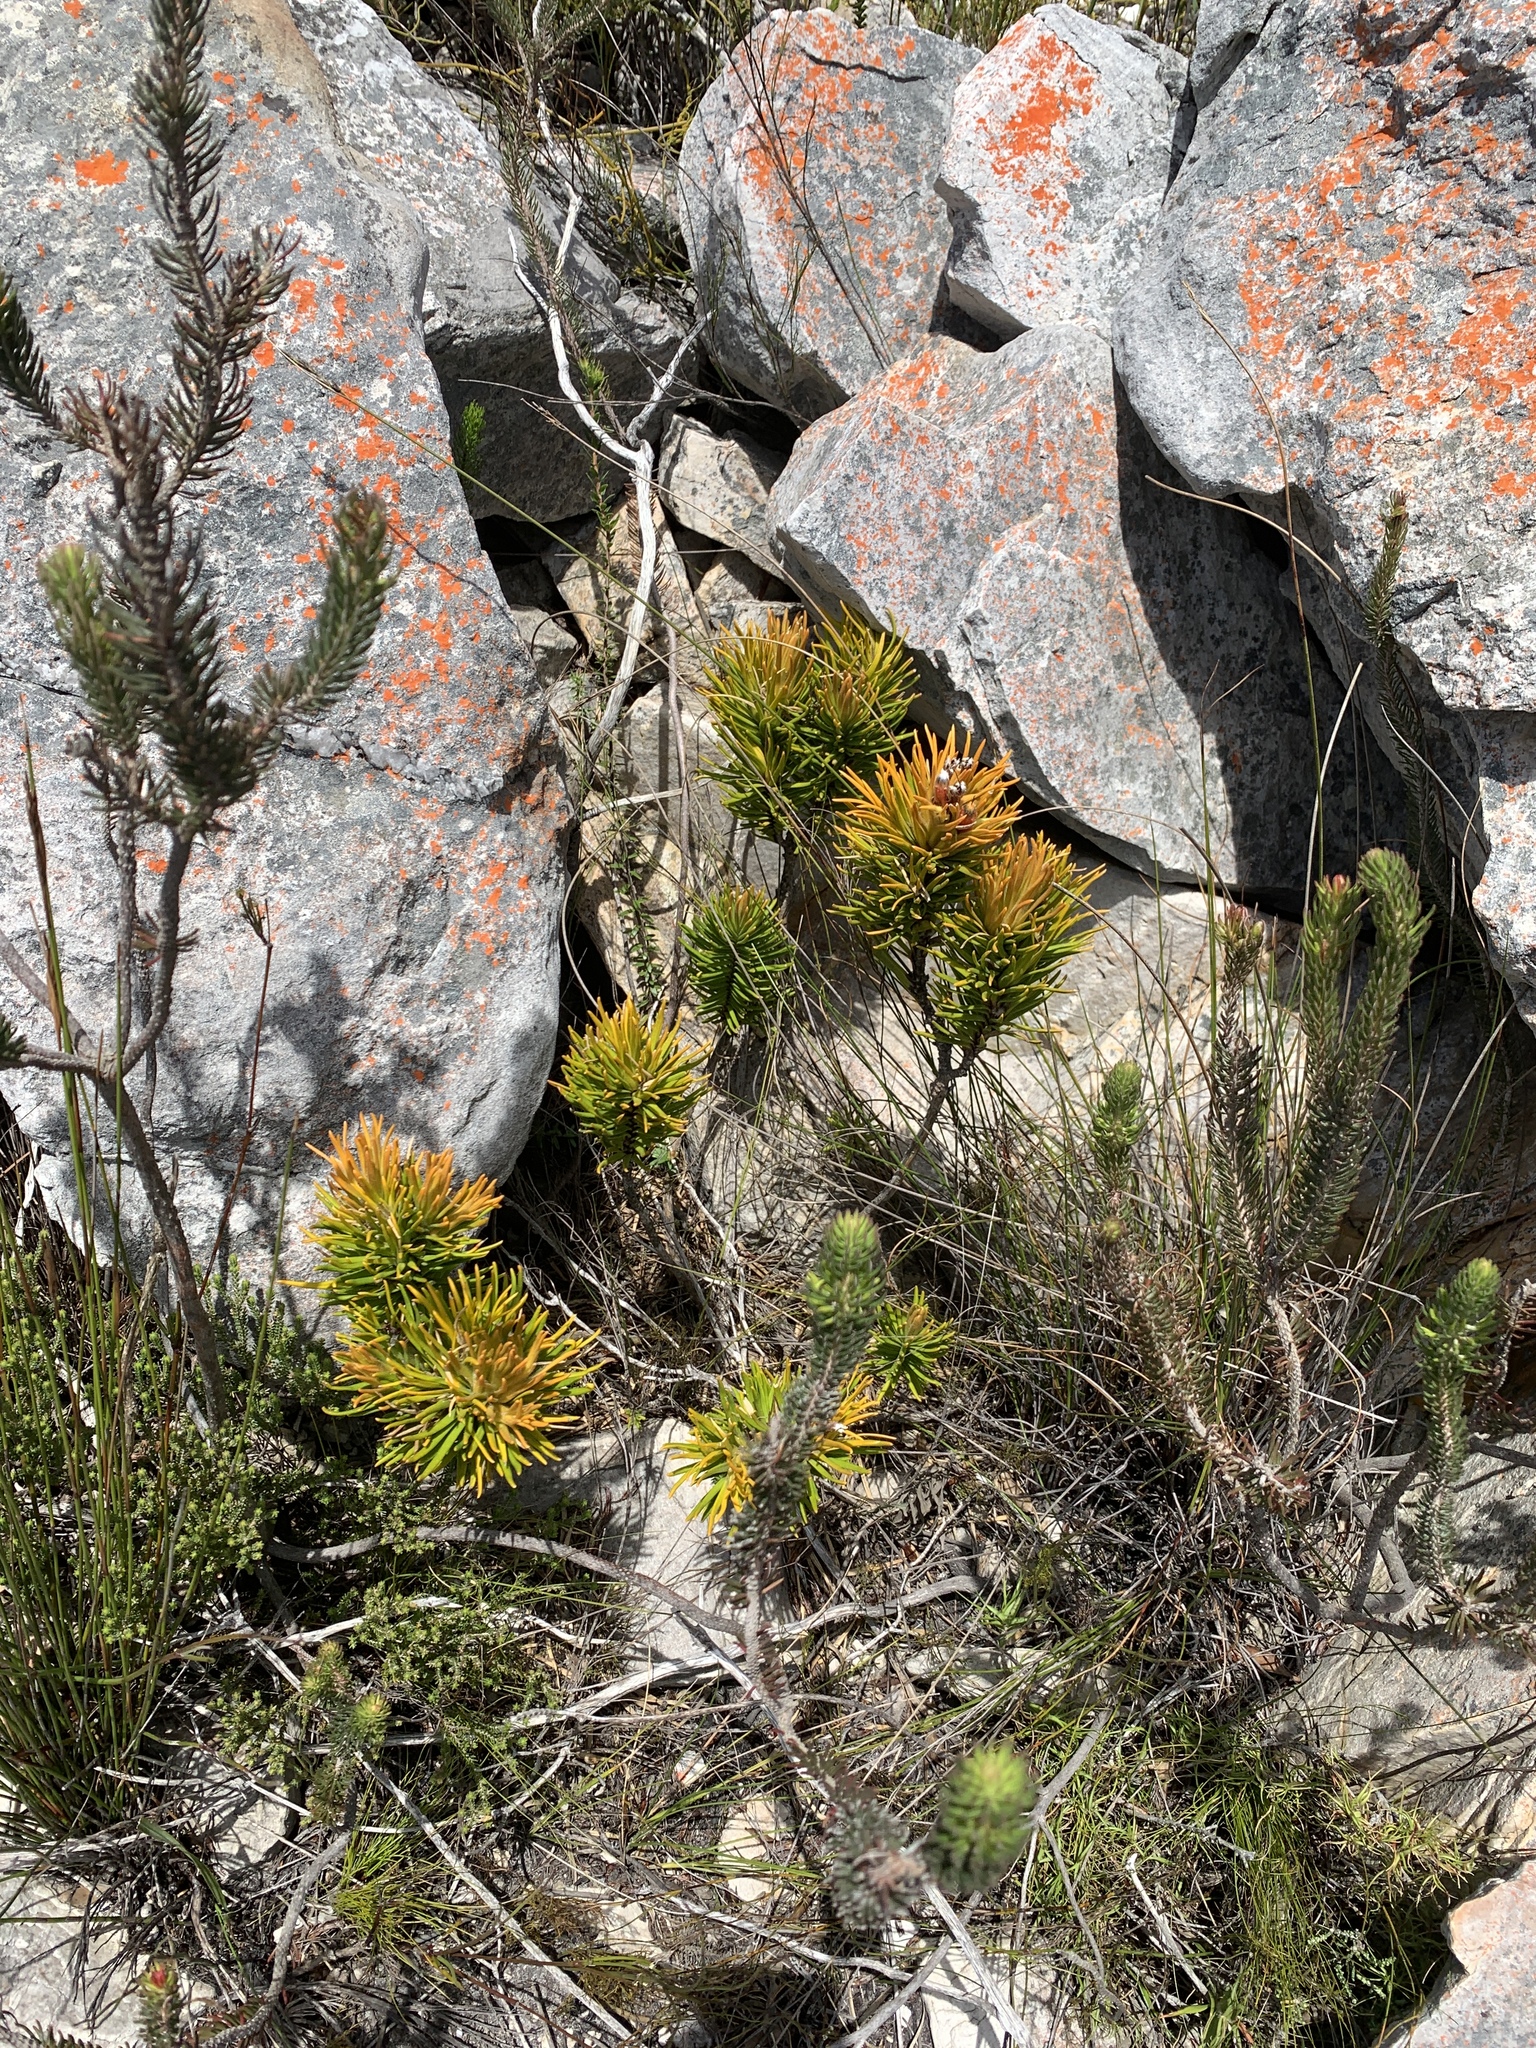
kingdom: Plantae
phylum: Tracheophyta
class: Magnoliopsida
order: Lamiales
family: Stilbaceae
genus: Retzia
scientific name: Retzia capensis
